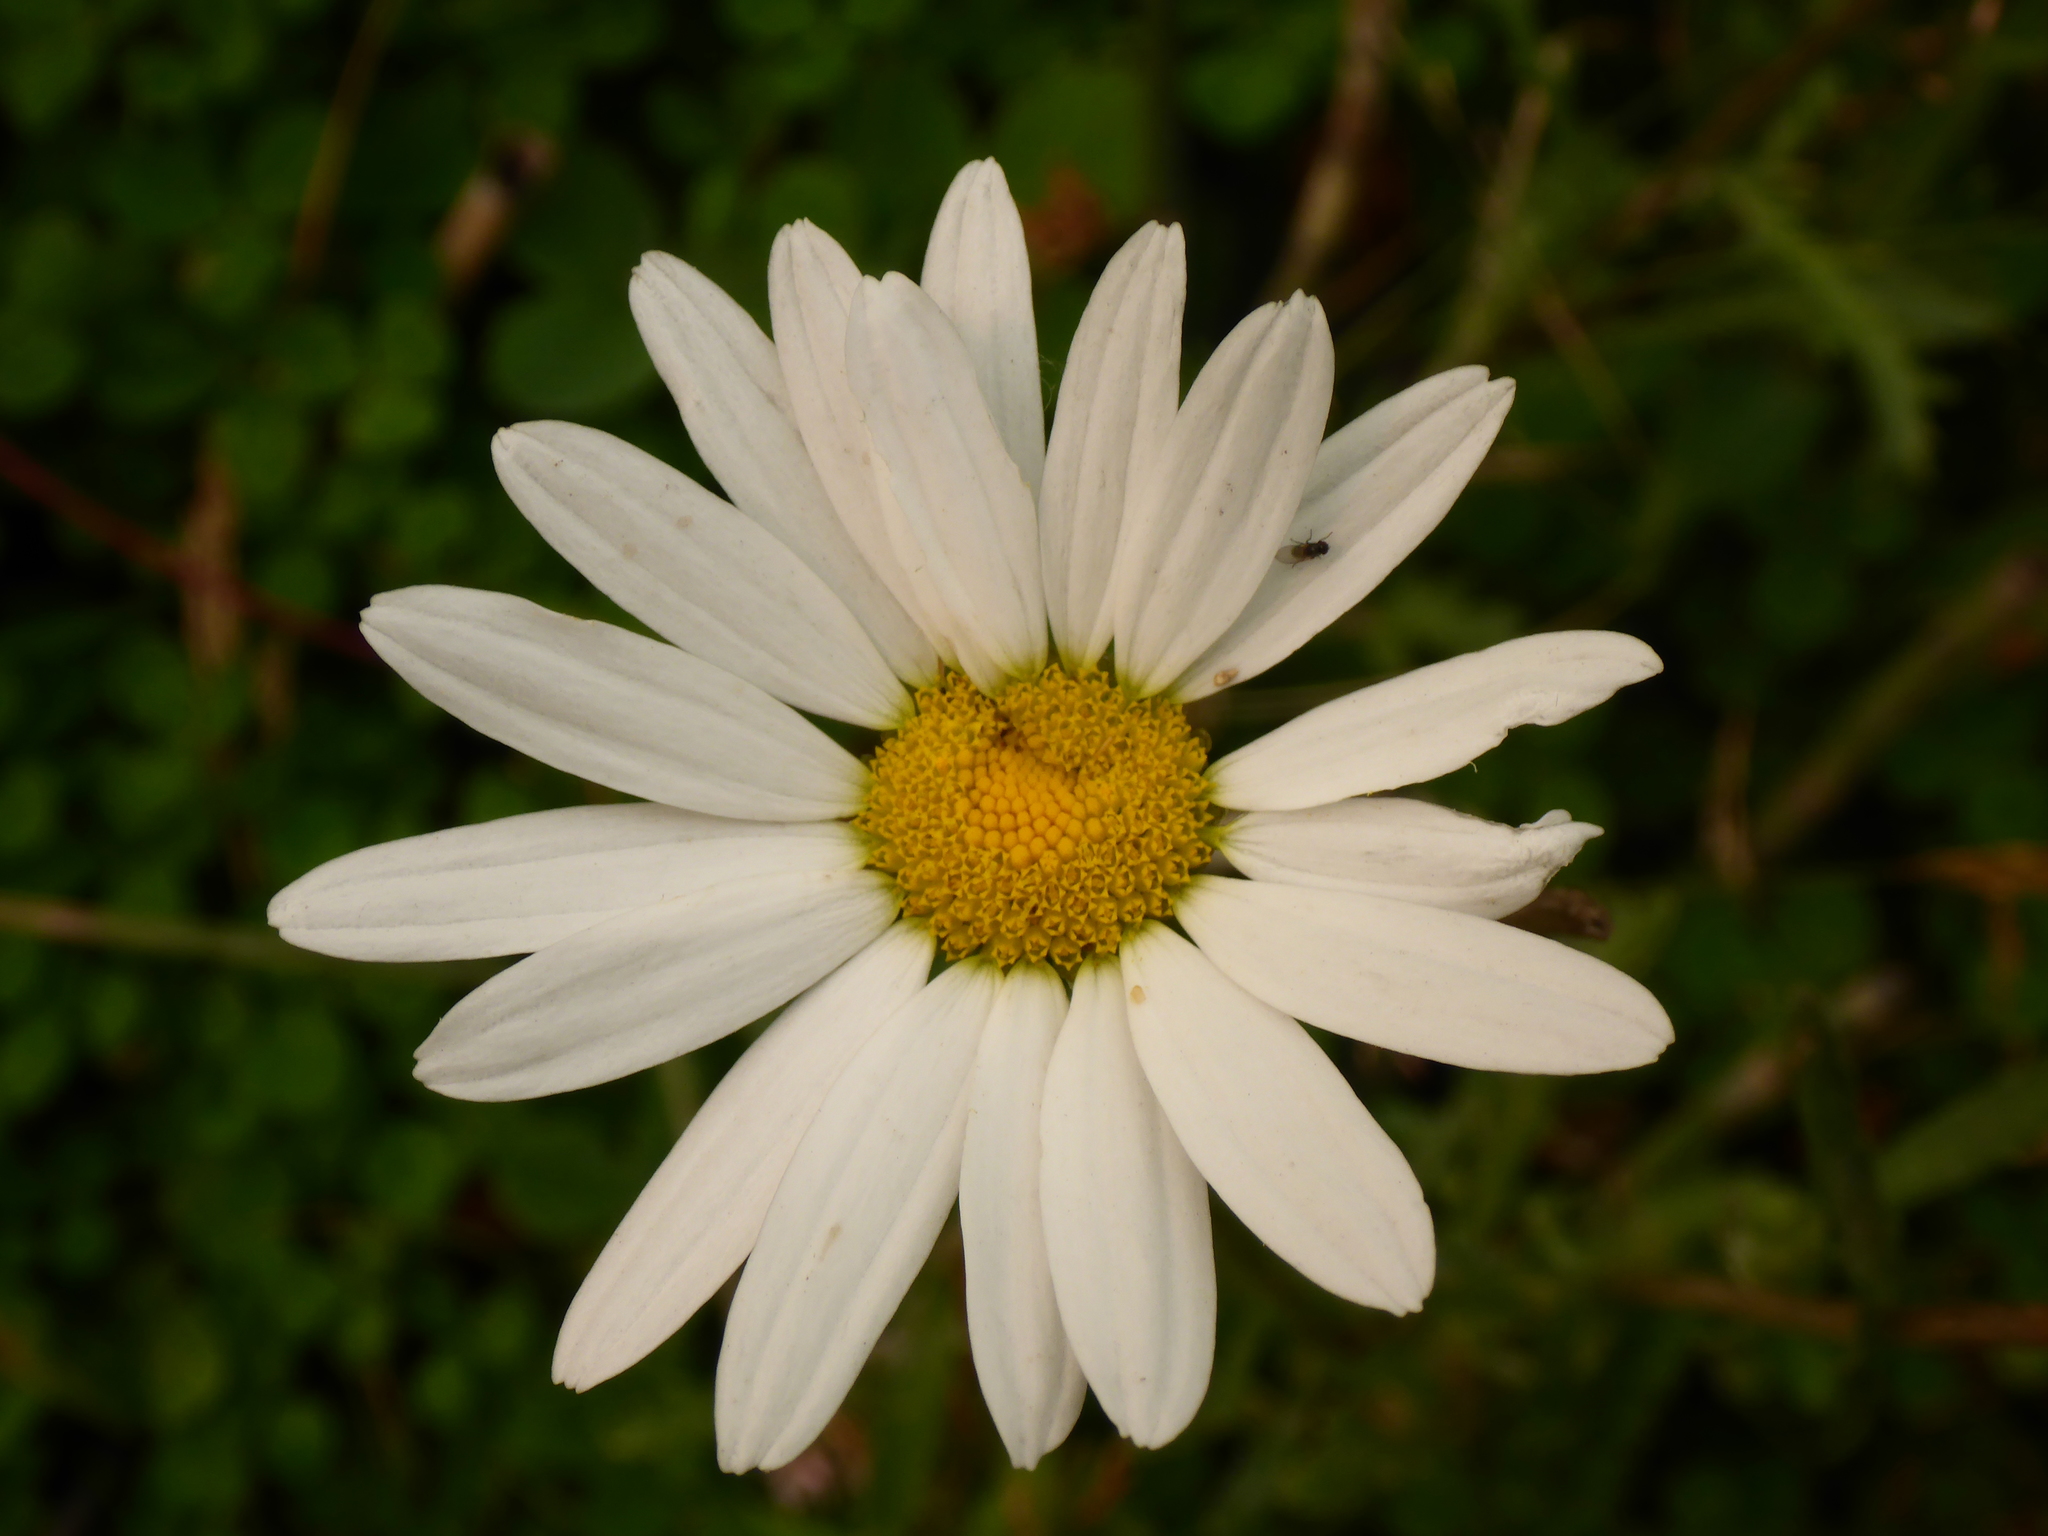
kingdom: Plantae
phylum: Tracheophyta
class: Magnoliopsida
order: Asterales
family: Asteraceae
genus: Leucanthemum
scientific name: Leucanthemum vulgare
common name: Oxeye daisy
